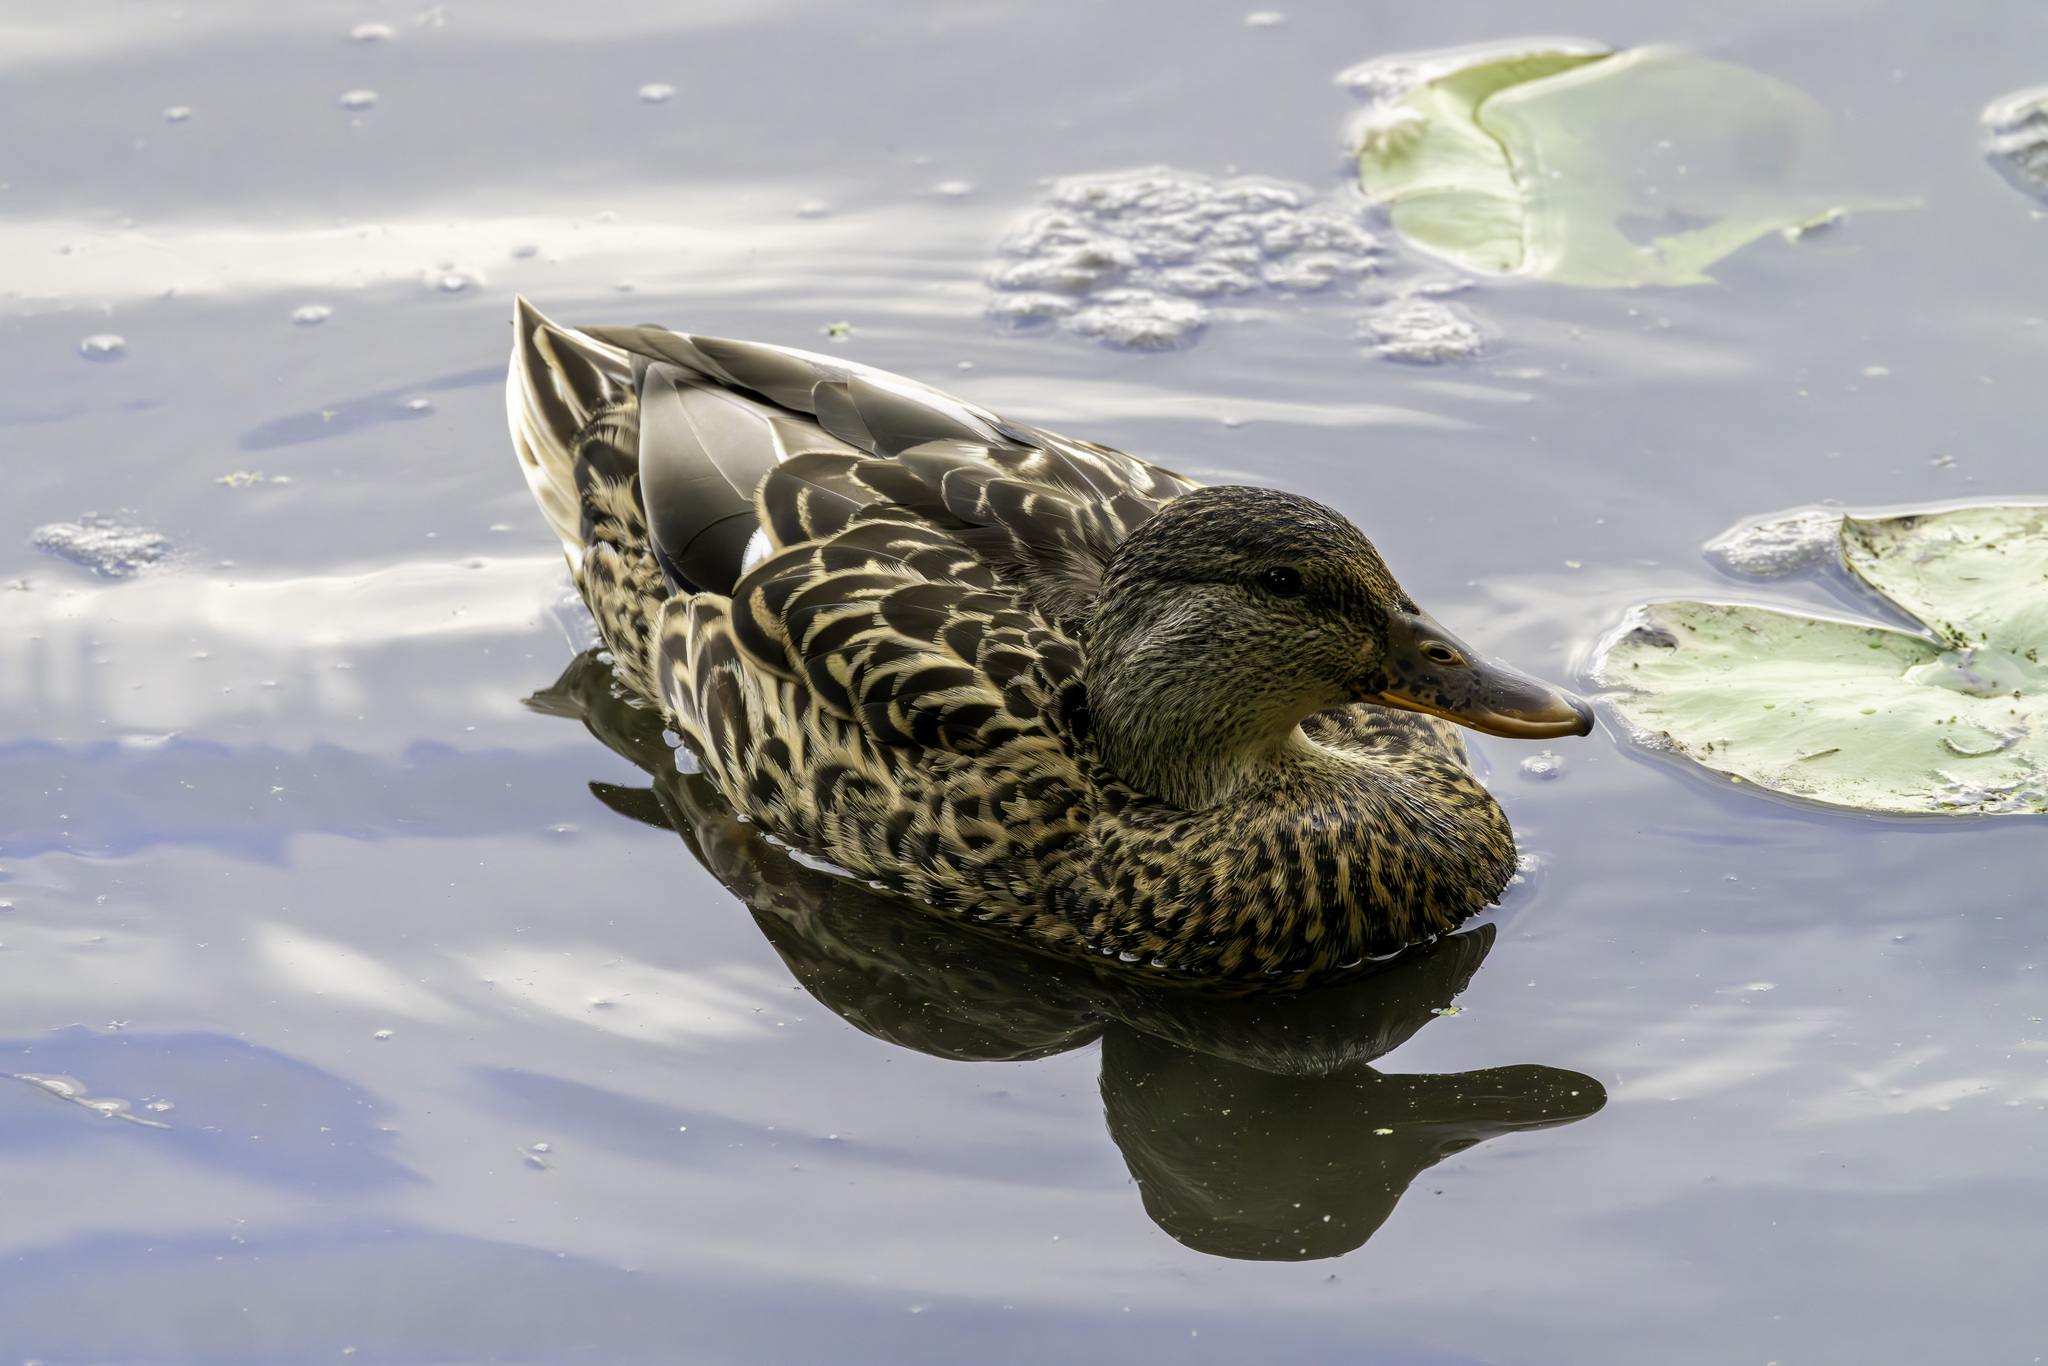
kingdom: Animalia
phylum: Chordata
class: Aves
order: Anseriformes
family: Anatidae
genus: Anas
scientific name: Anas platyrhynchos
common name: Mallard
